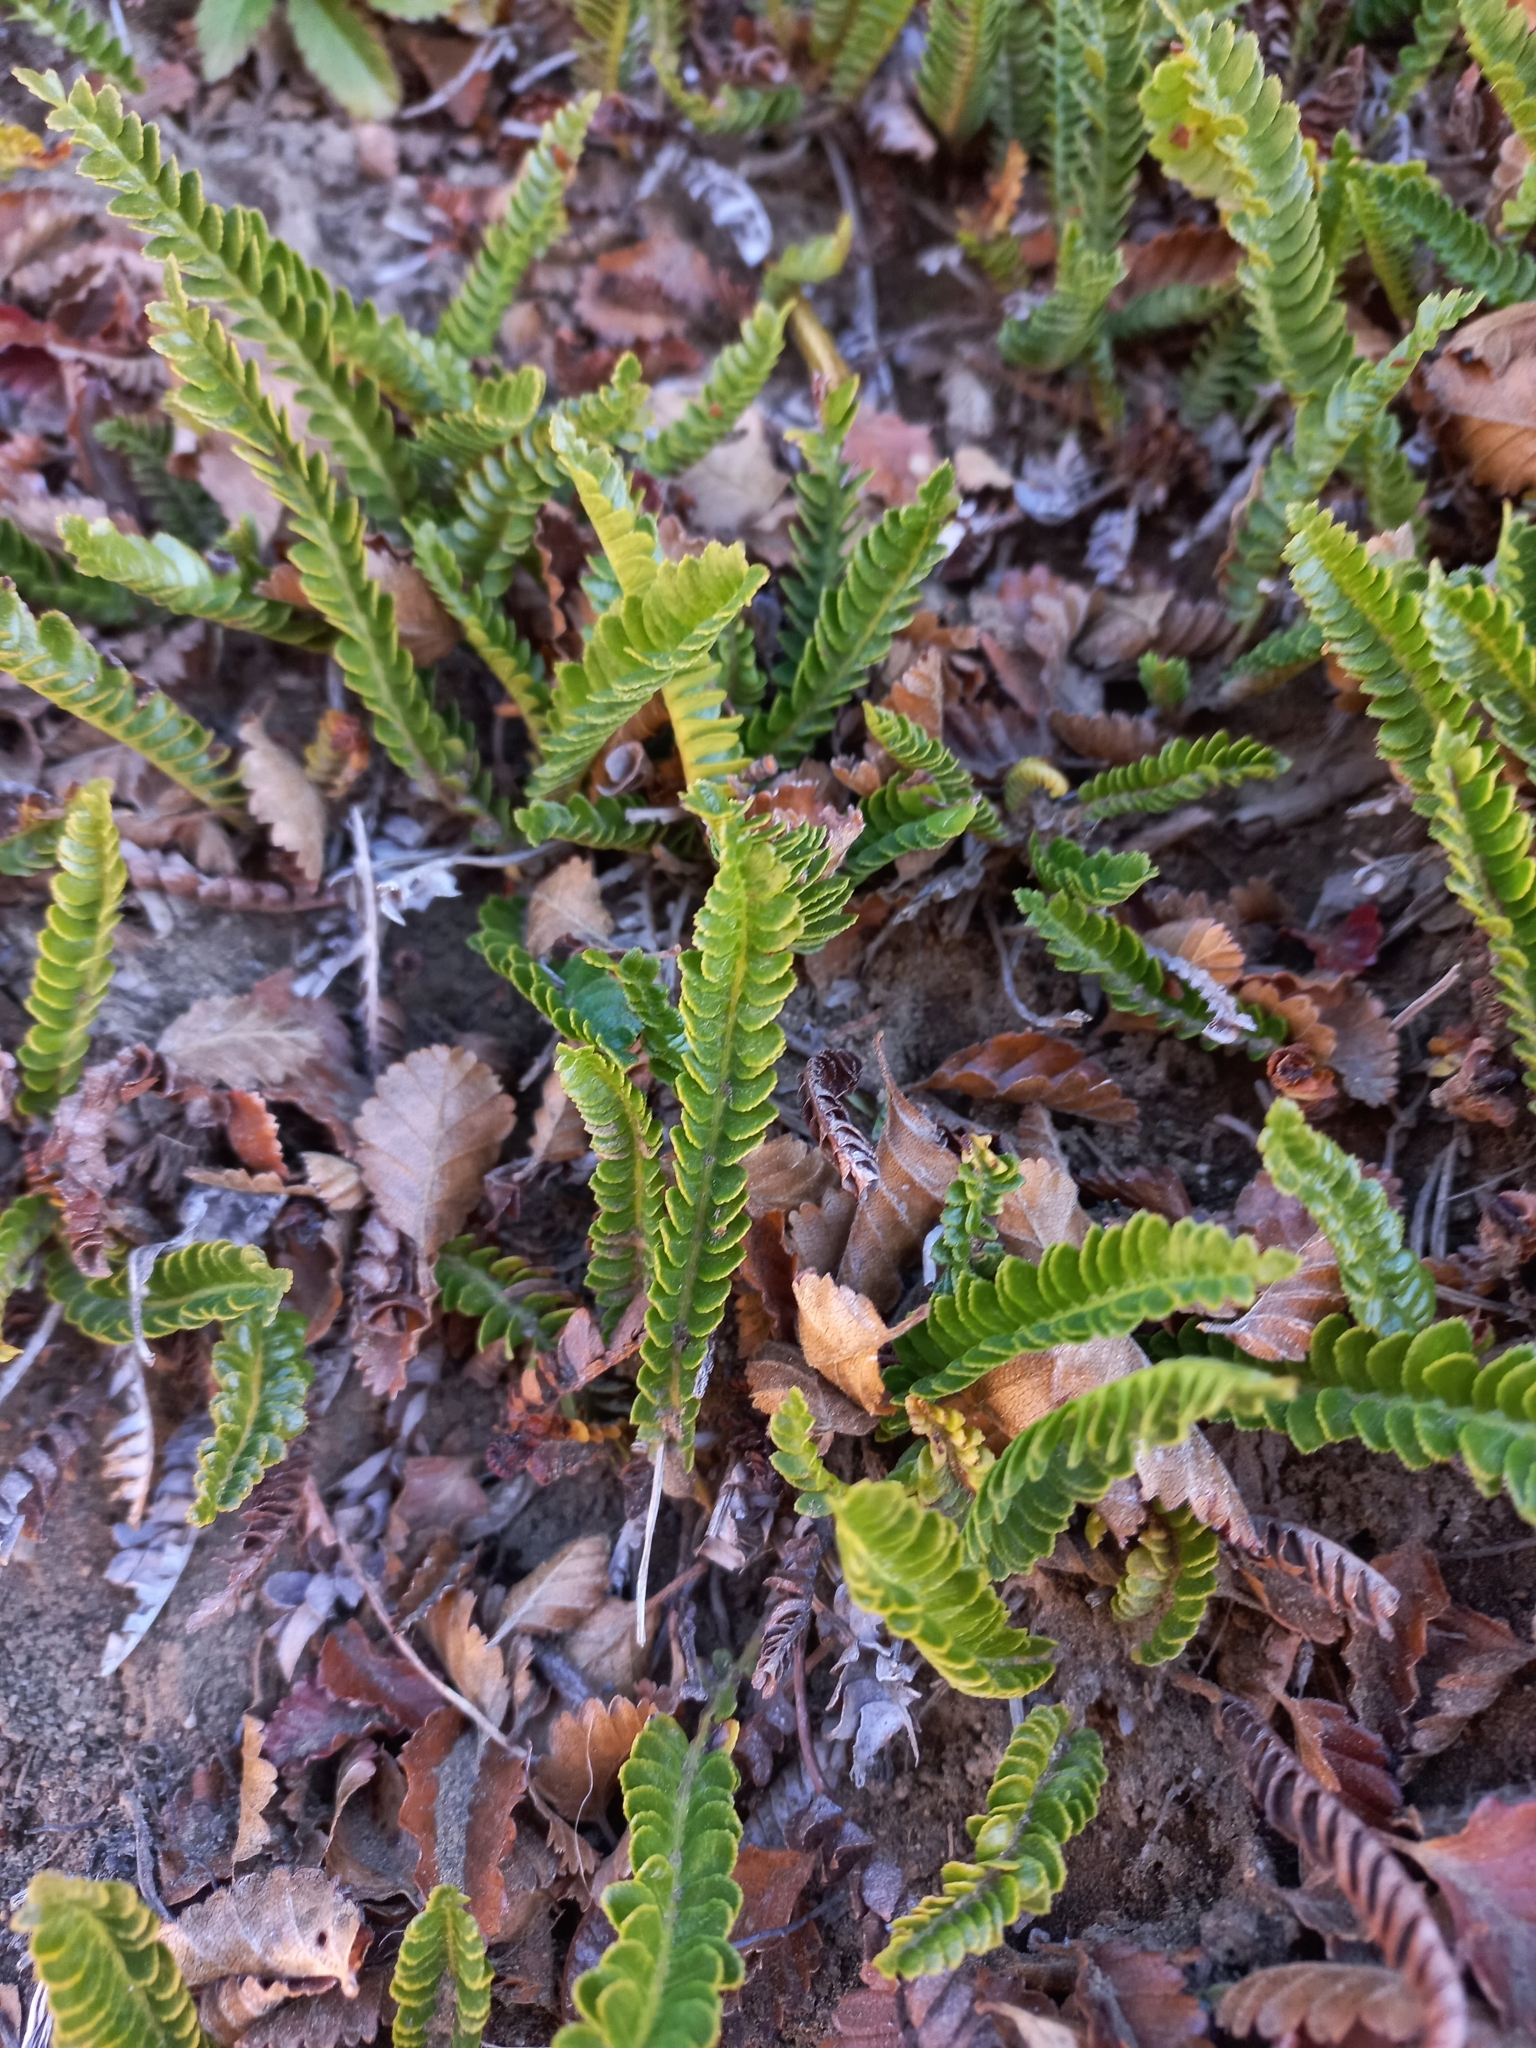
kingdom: Plantae
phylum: Tracheophyta
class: Polypodiopsida
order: Polypodiales
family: Dryopteridaceae
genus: Polystichum
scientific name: Polystichum andinum
